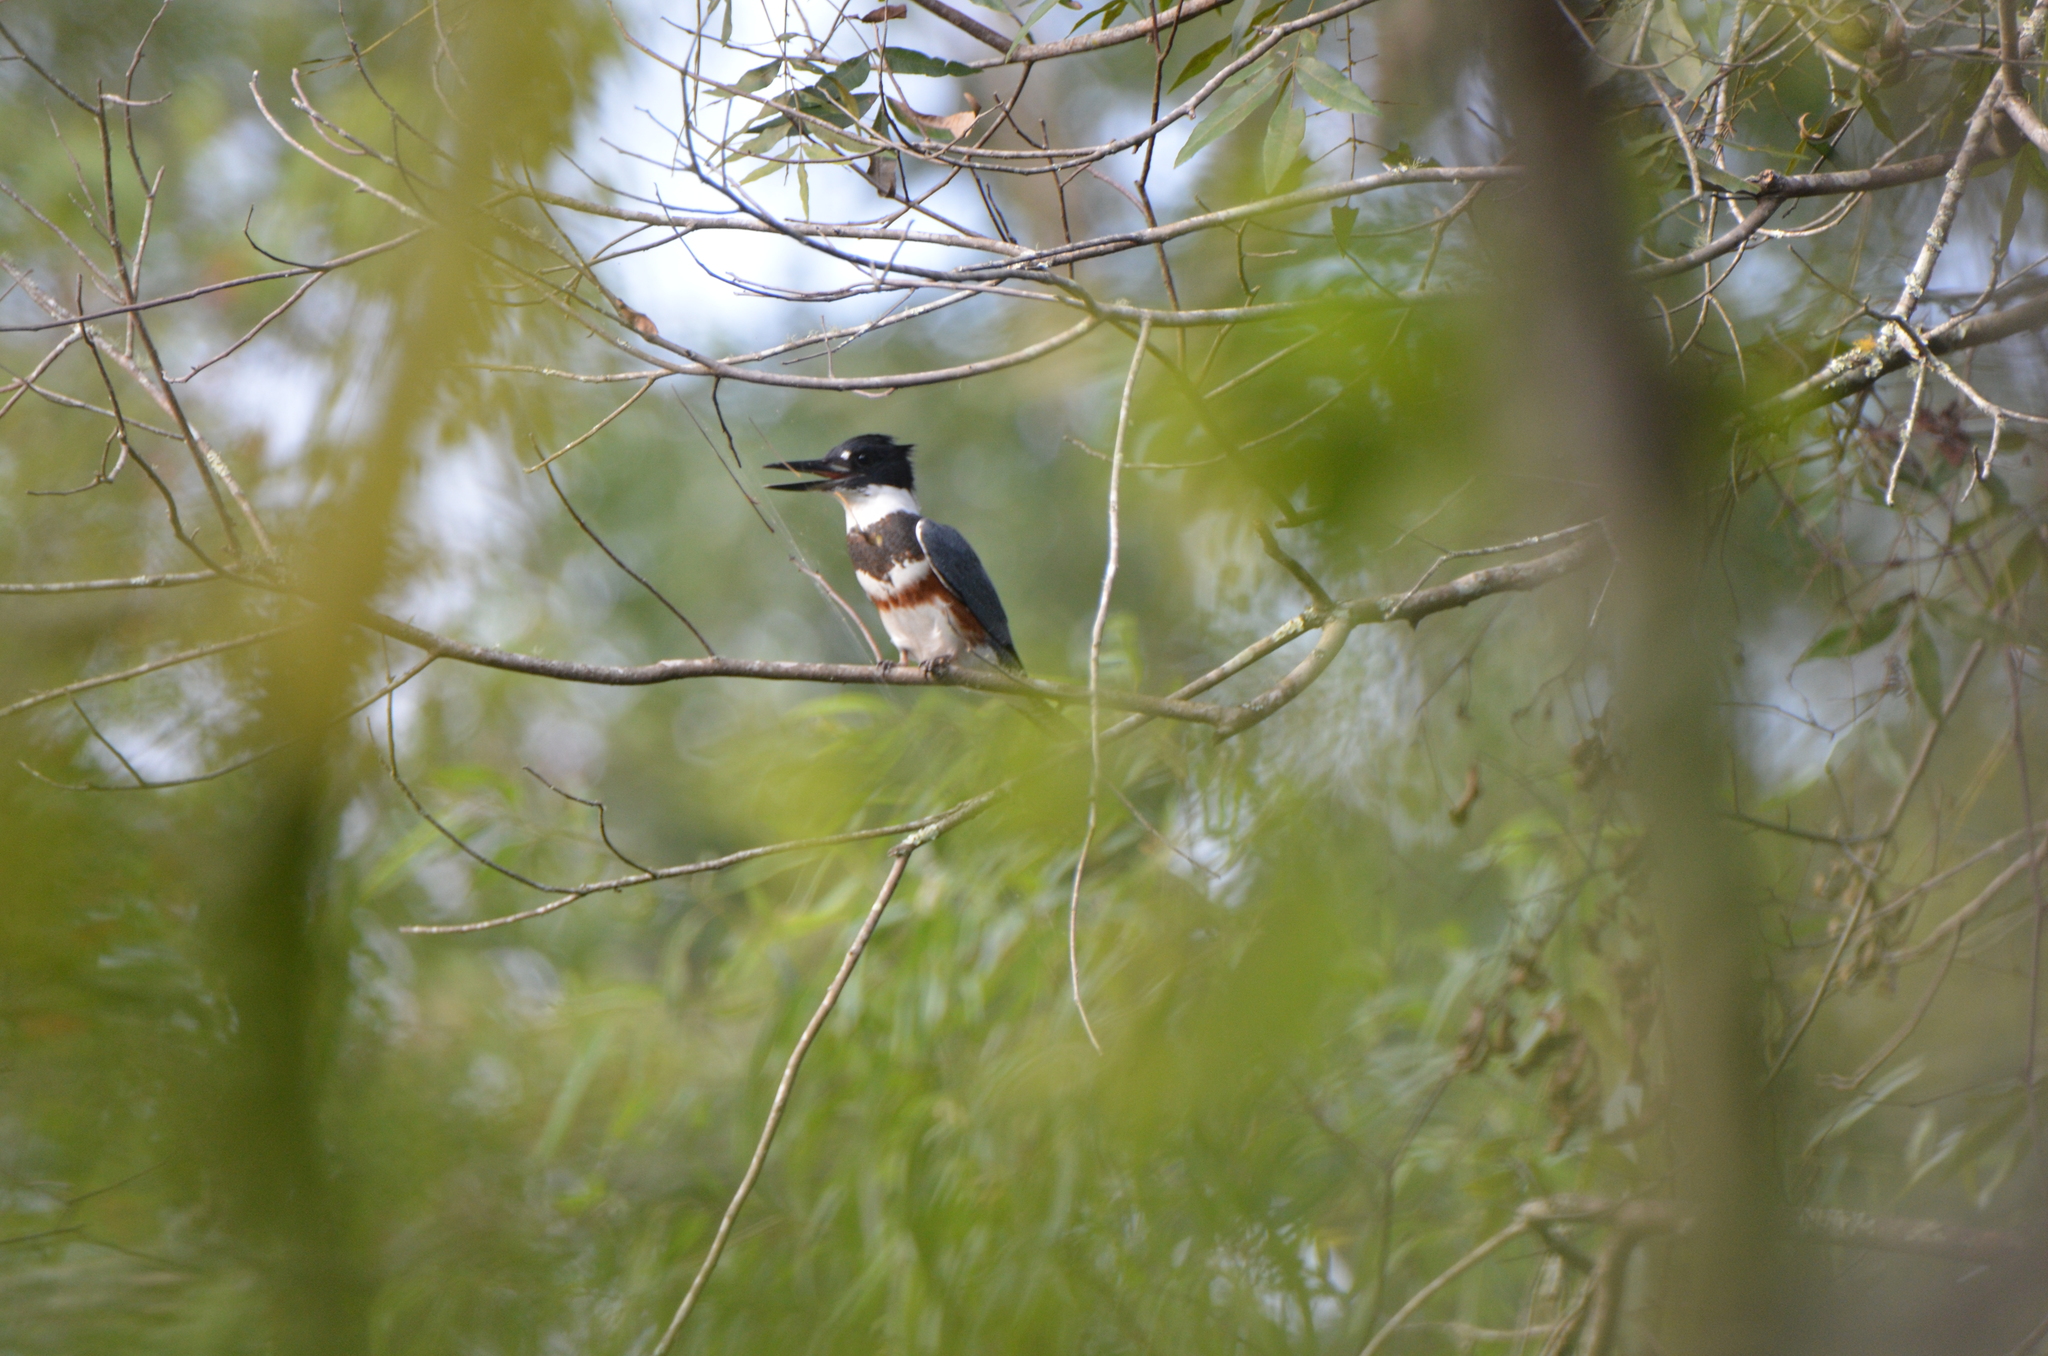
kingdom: Animalia
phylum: Chordata
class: Aves
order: Coraciiformes
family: Alcedinidae
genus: Megaceryle
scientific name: Megaceryle alcyon
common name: Belted kingfisher
